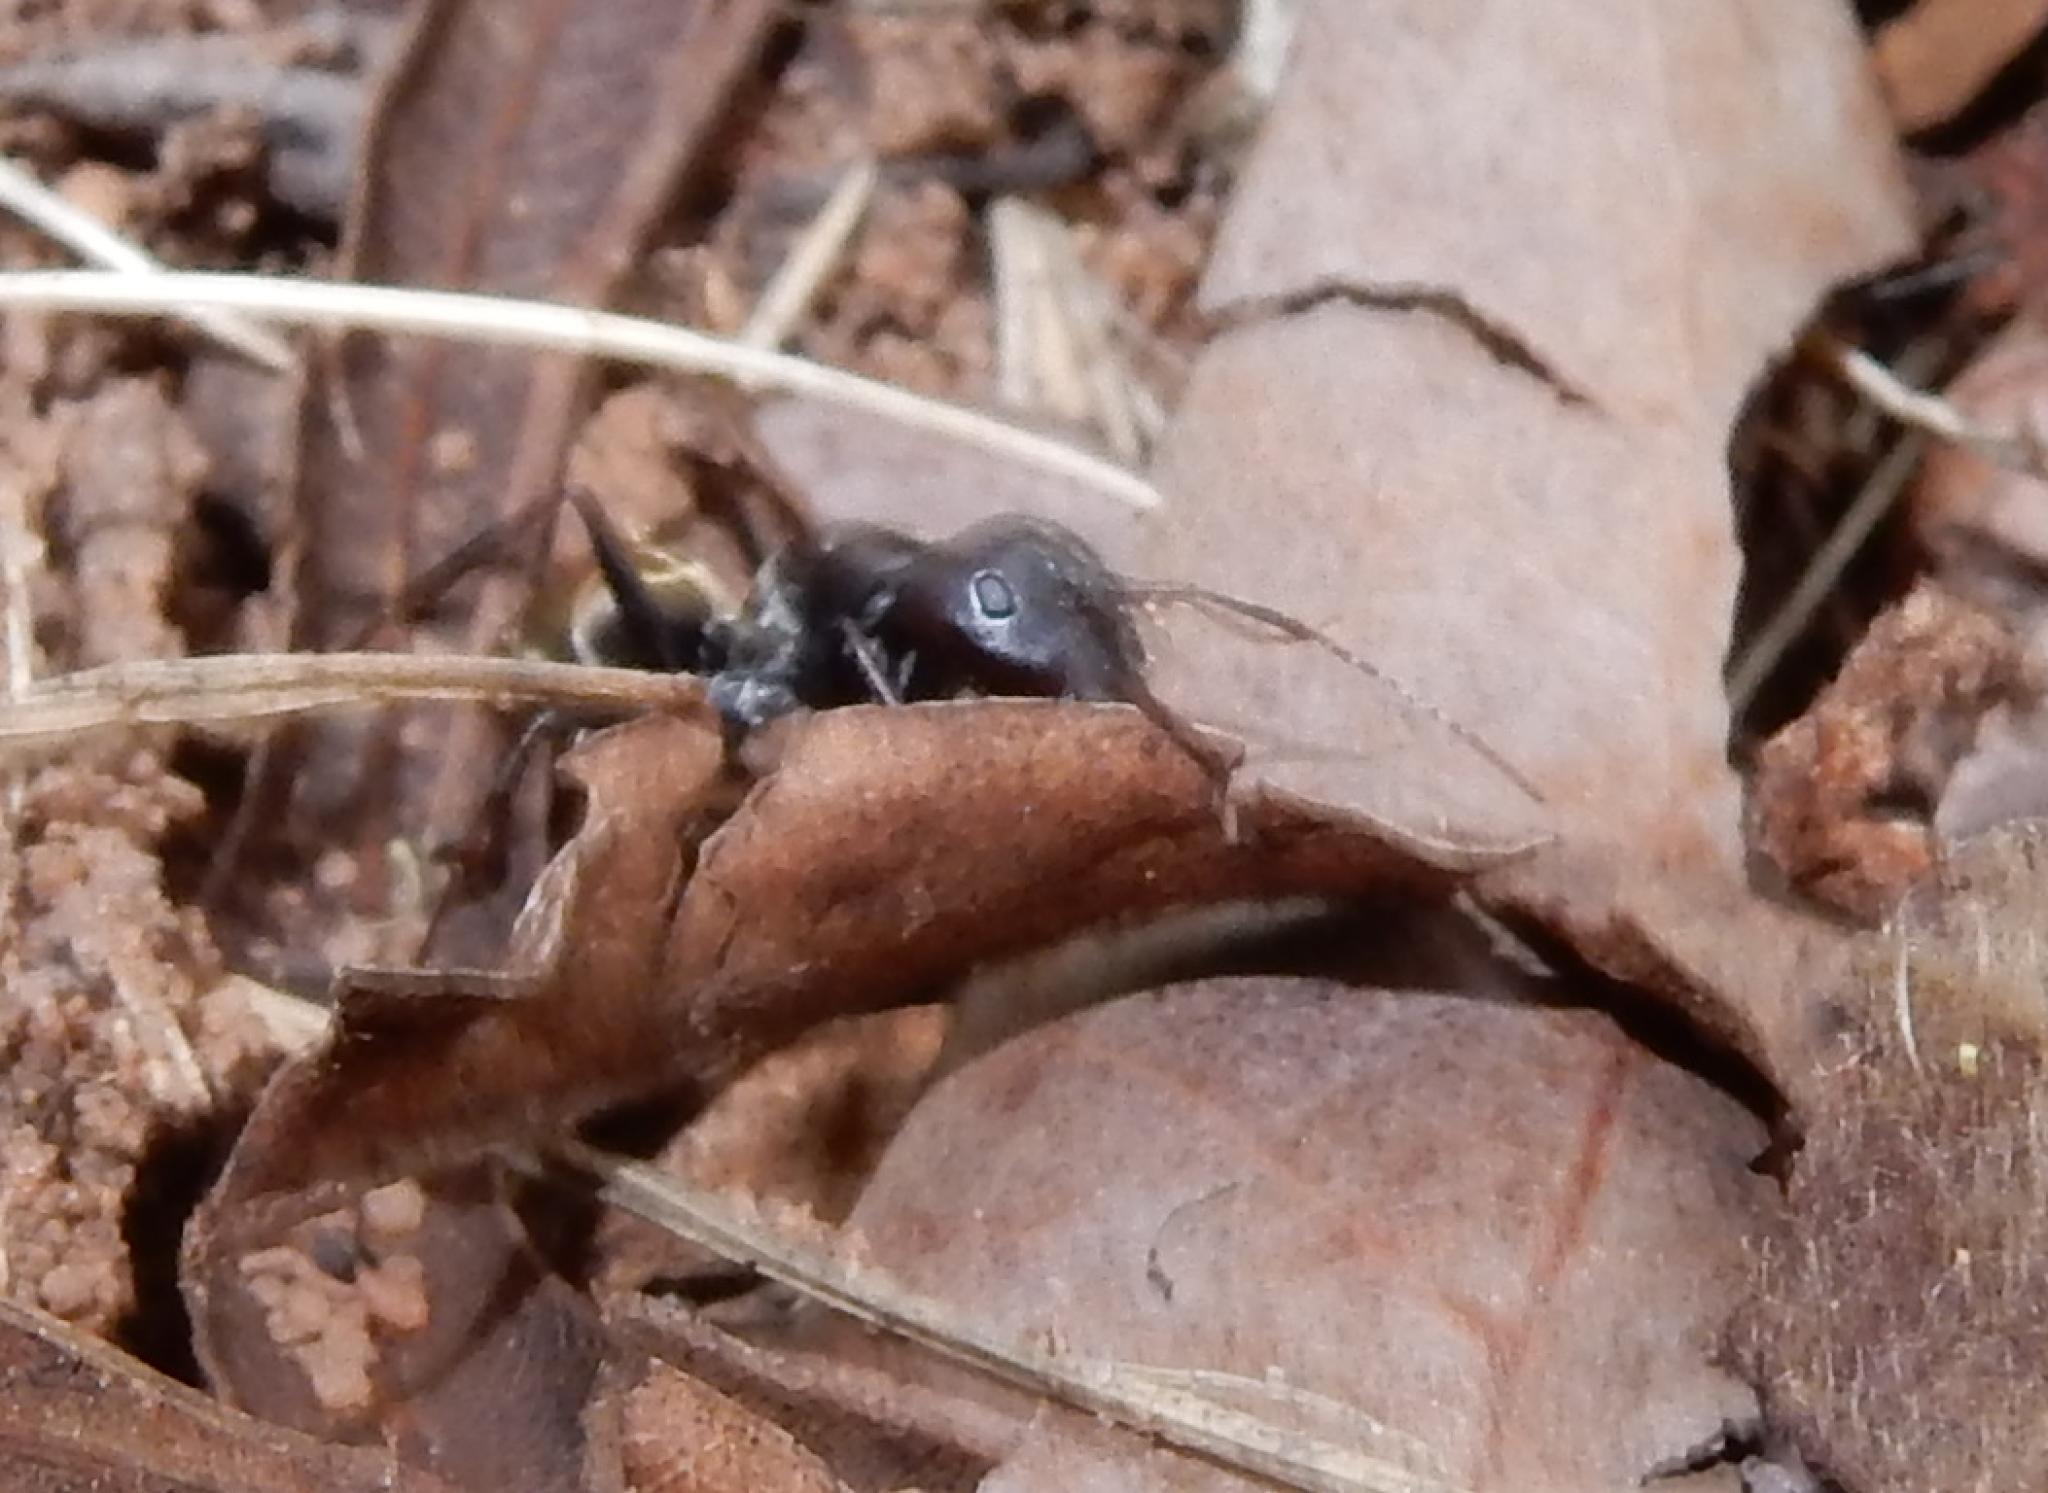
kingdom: Animalia
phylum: Arthropoda
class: Insecta
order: Hymenoptera
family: Formicidae
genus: Camponotus
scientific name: Camponotus cinctellus
